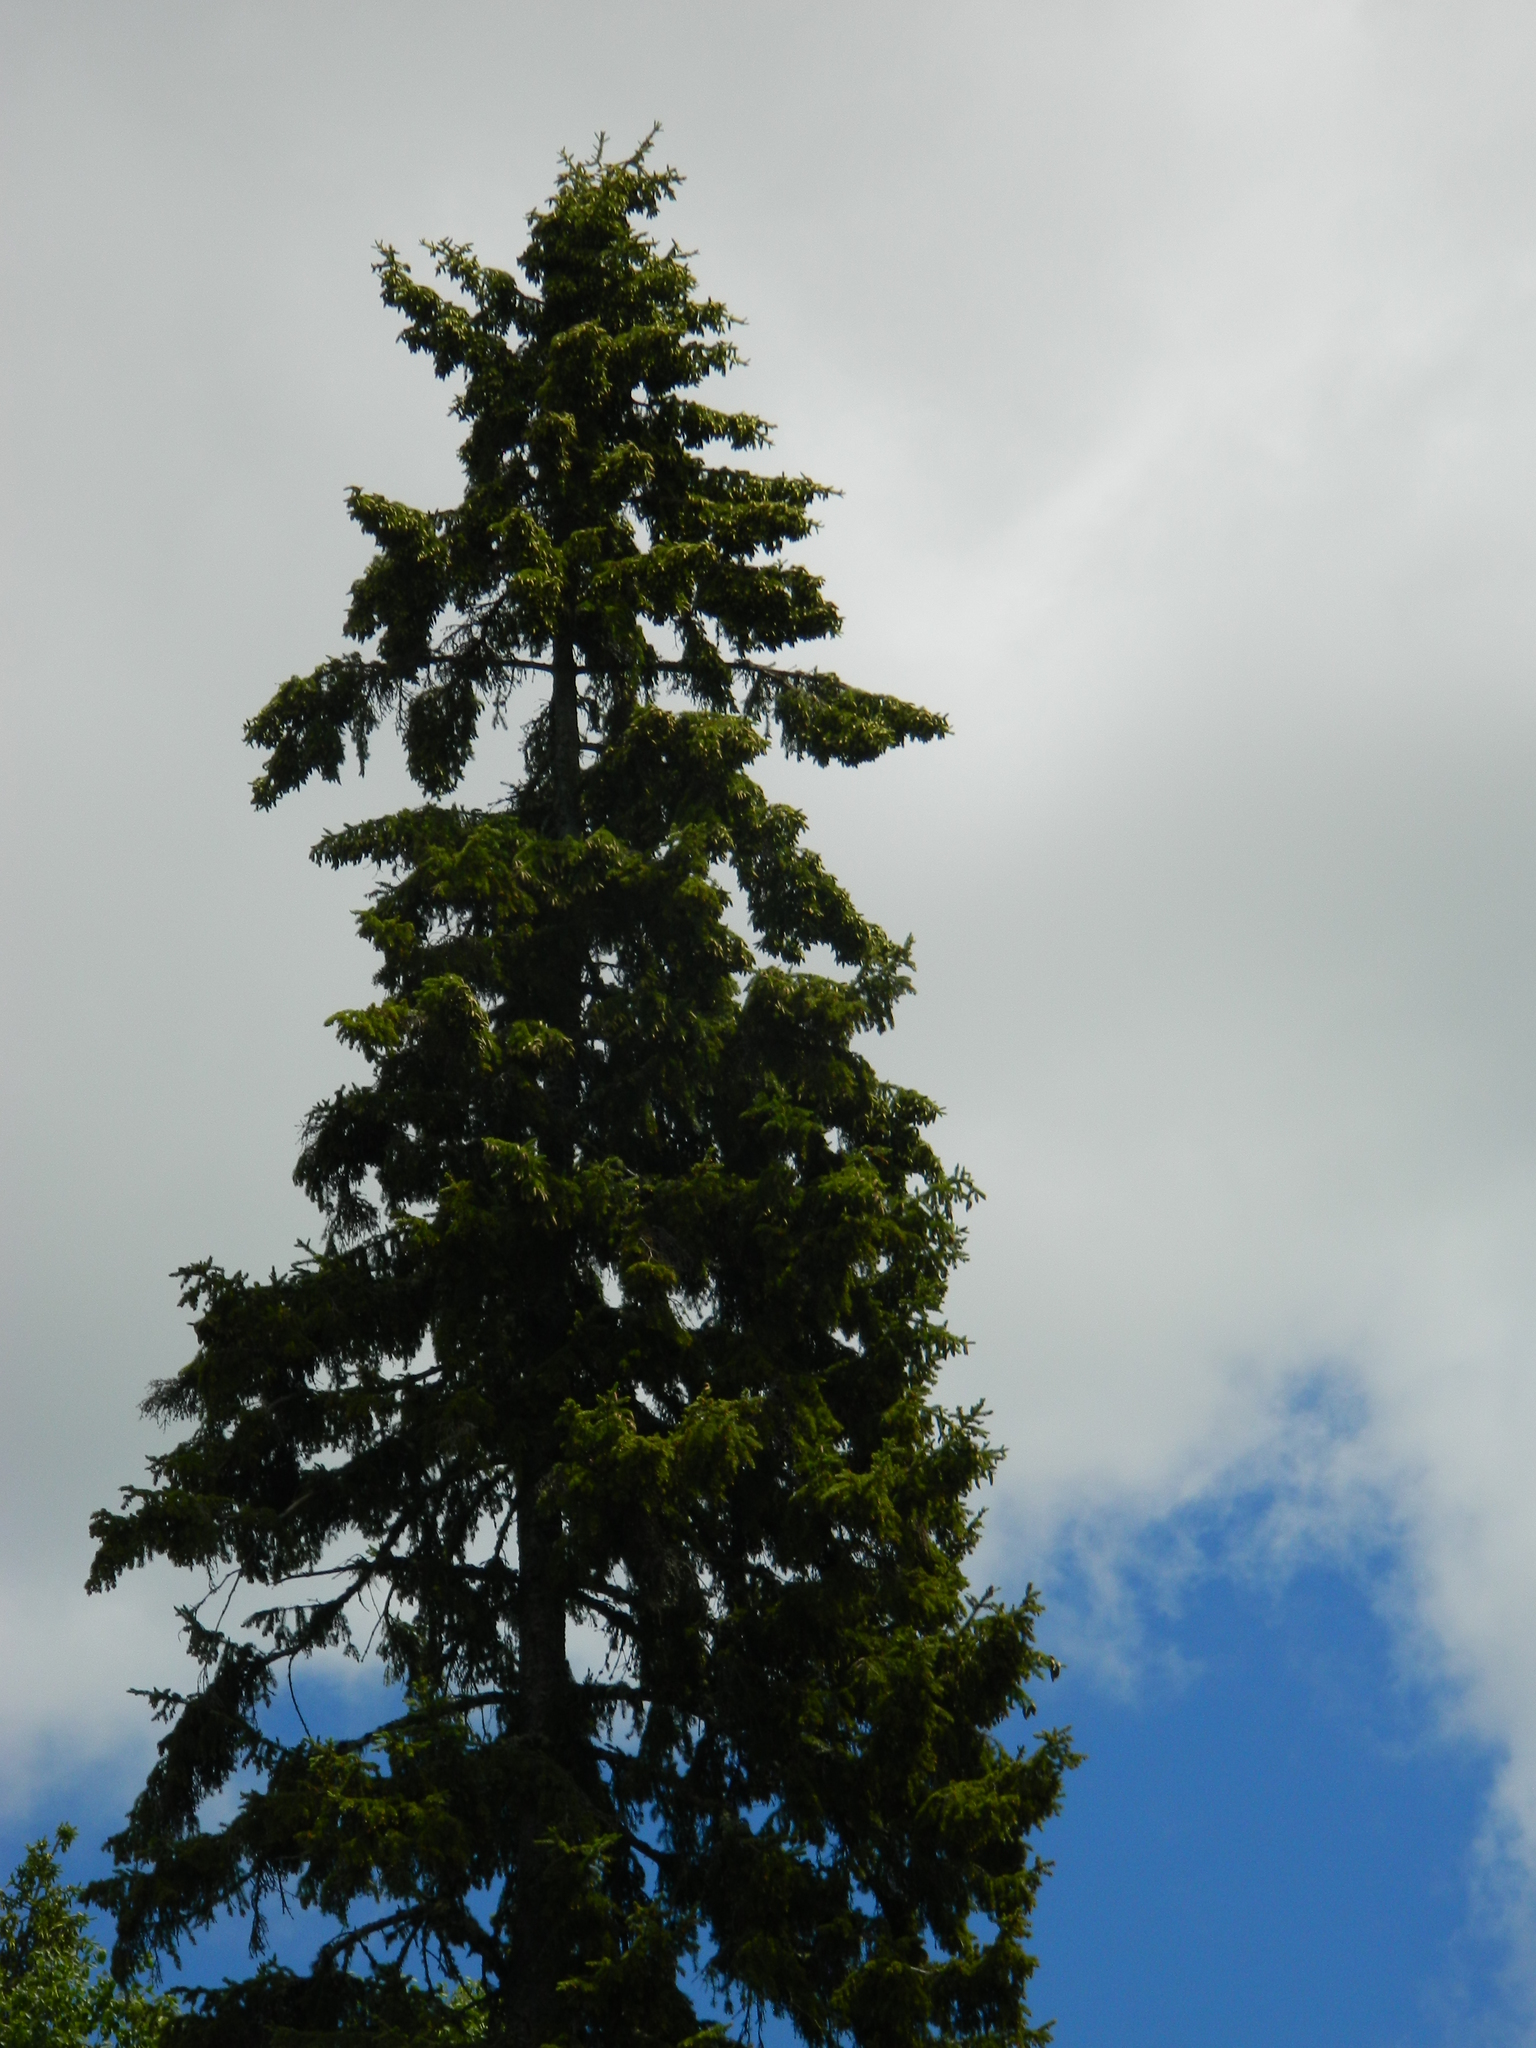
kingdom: Plantae
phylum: Tracheophyta
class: Pinopsida
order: Pinales
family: Pinaceae
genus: Picea
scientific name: Picea glauca
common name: White spruce
